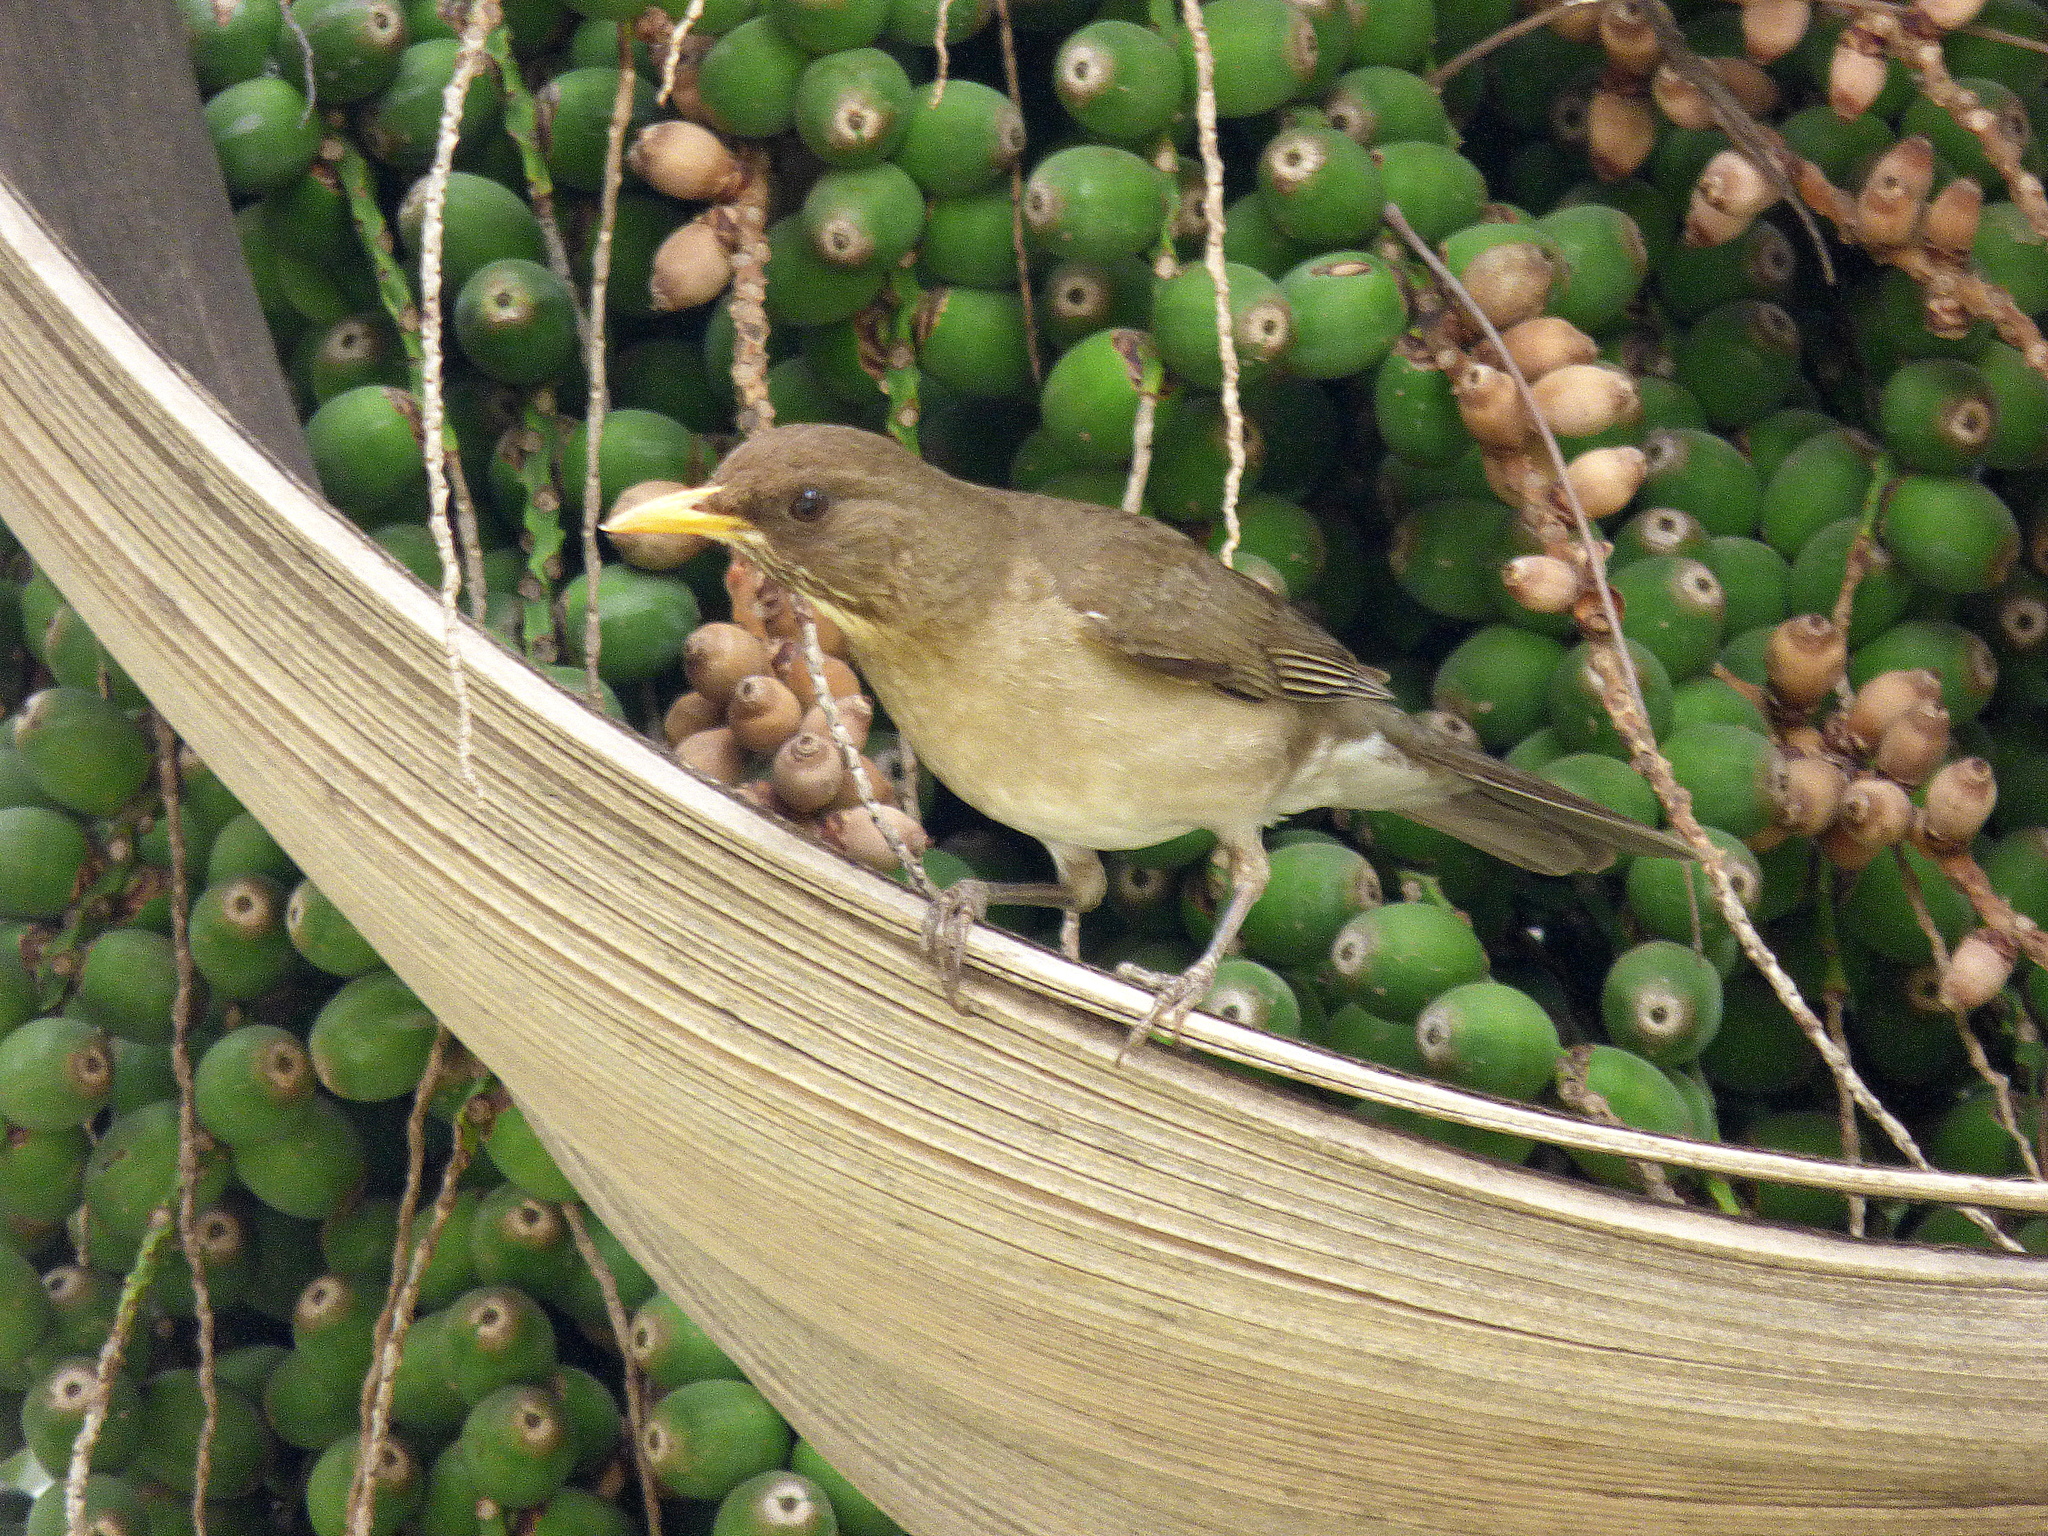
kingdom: Animalia
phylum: Chordata
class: Aves
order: Passeriformes
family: Turdidae
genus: Turdus
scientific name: Turdus amaurochalinus
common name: Creamy-bellied thrush
